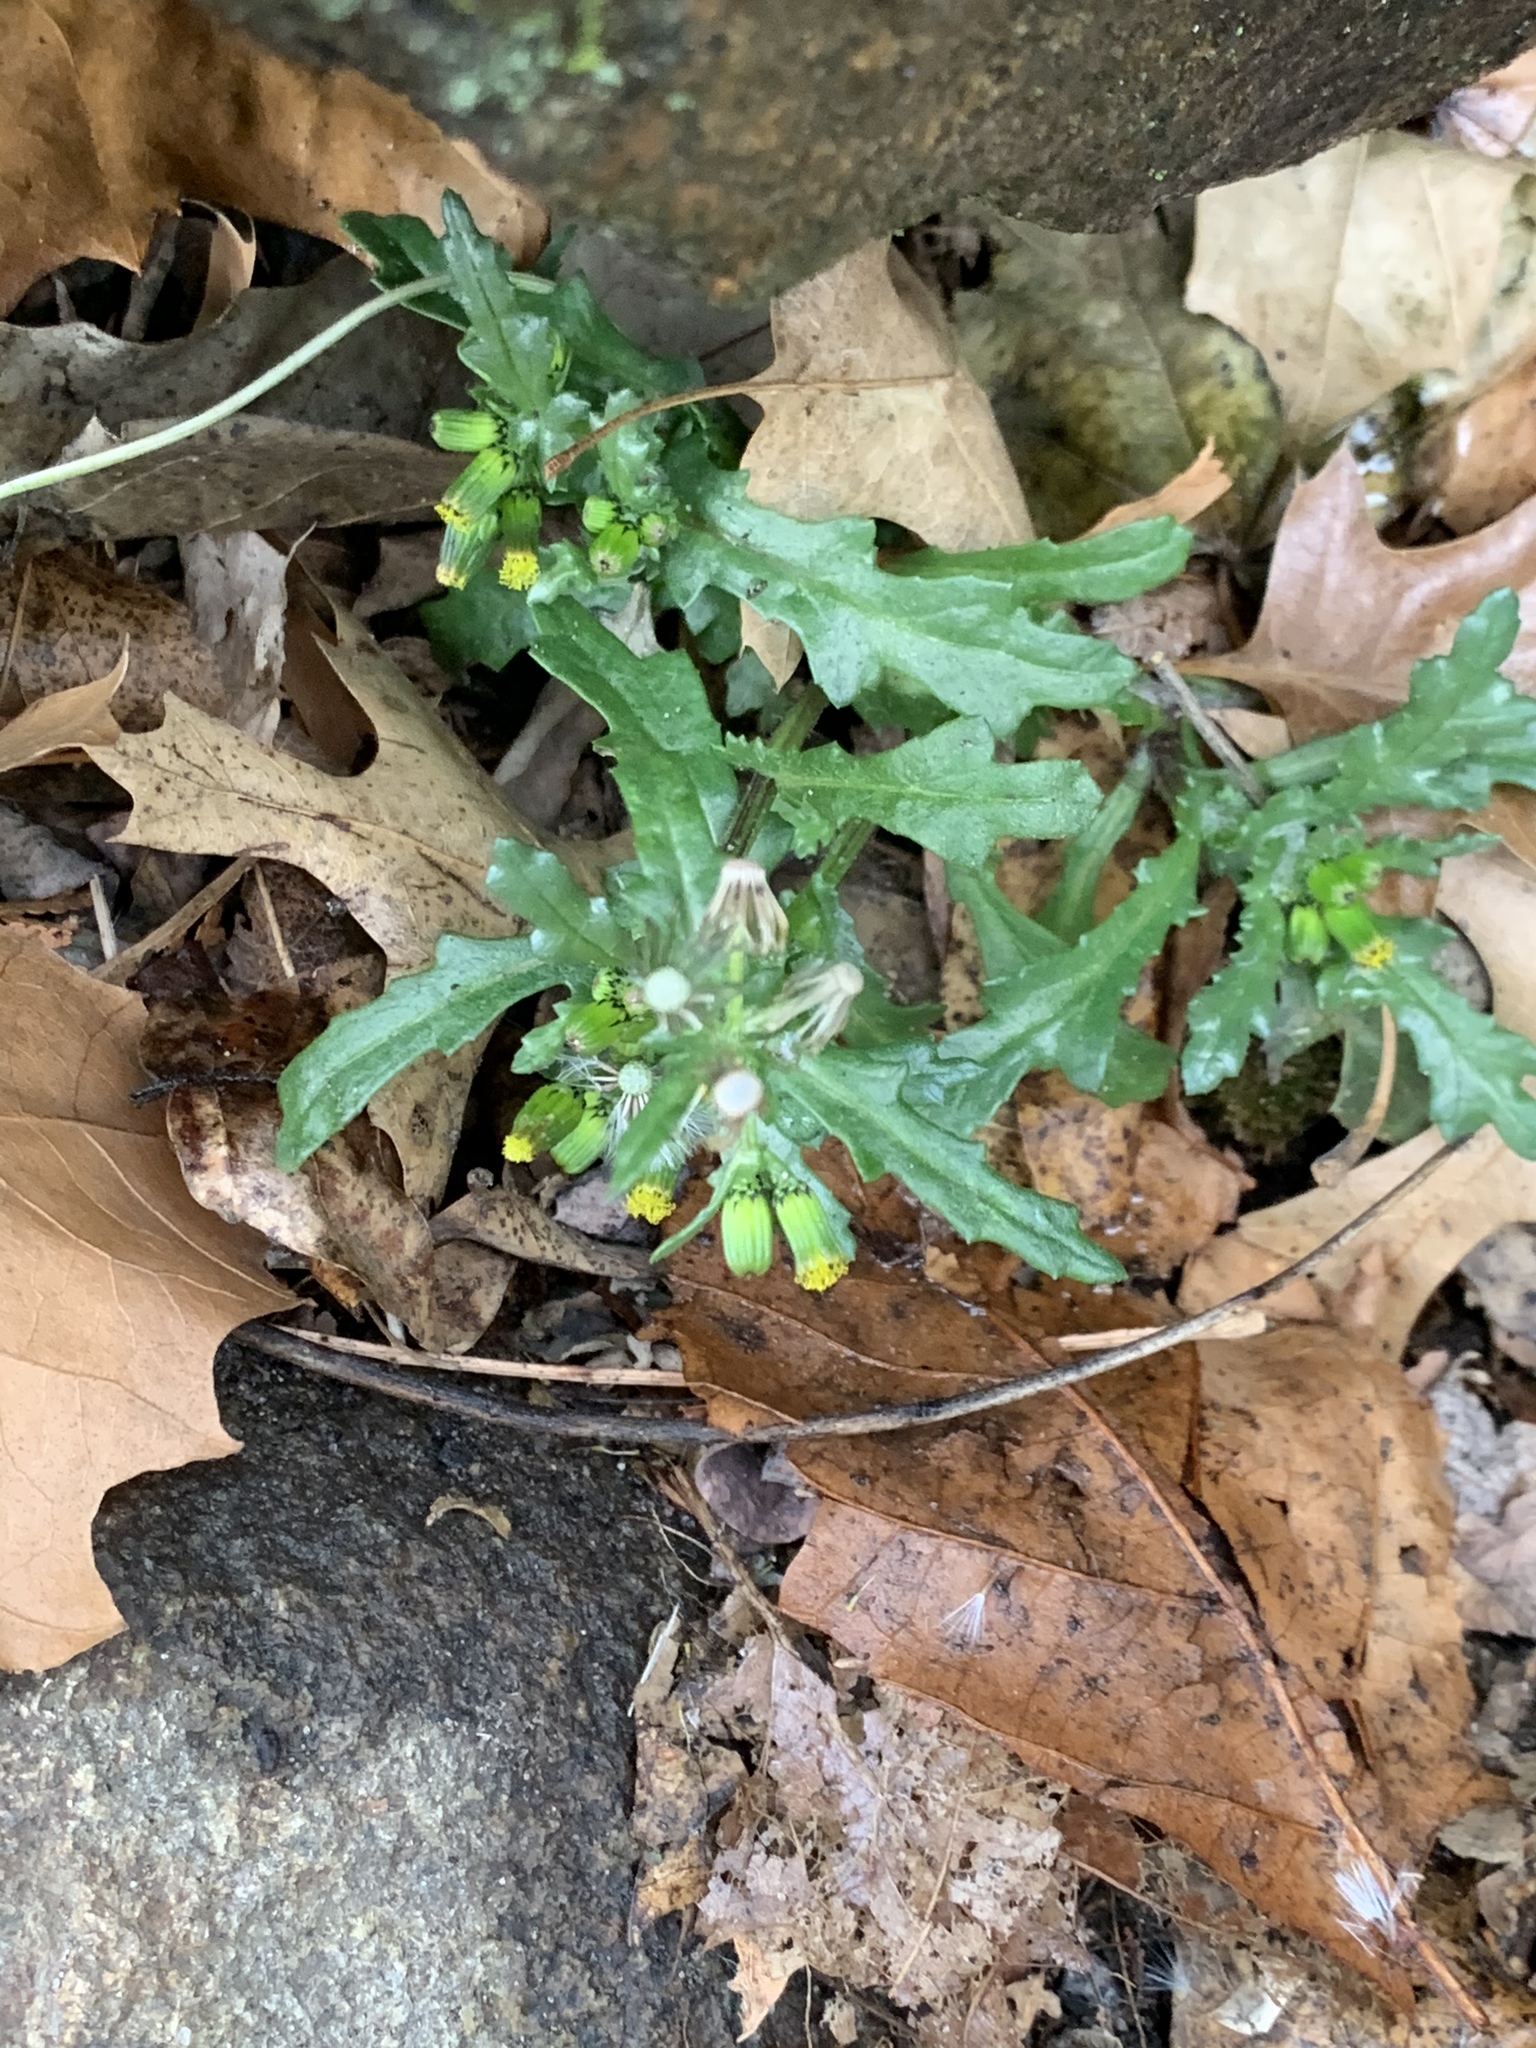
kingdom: Plantae
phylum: Tracheophyta
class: Magnoliopsida
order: Asterales
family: Asteraceae
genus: Senecio
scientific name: Senecio vulgaris
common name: Old-man-in-the-spring
